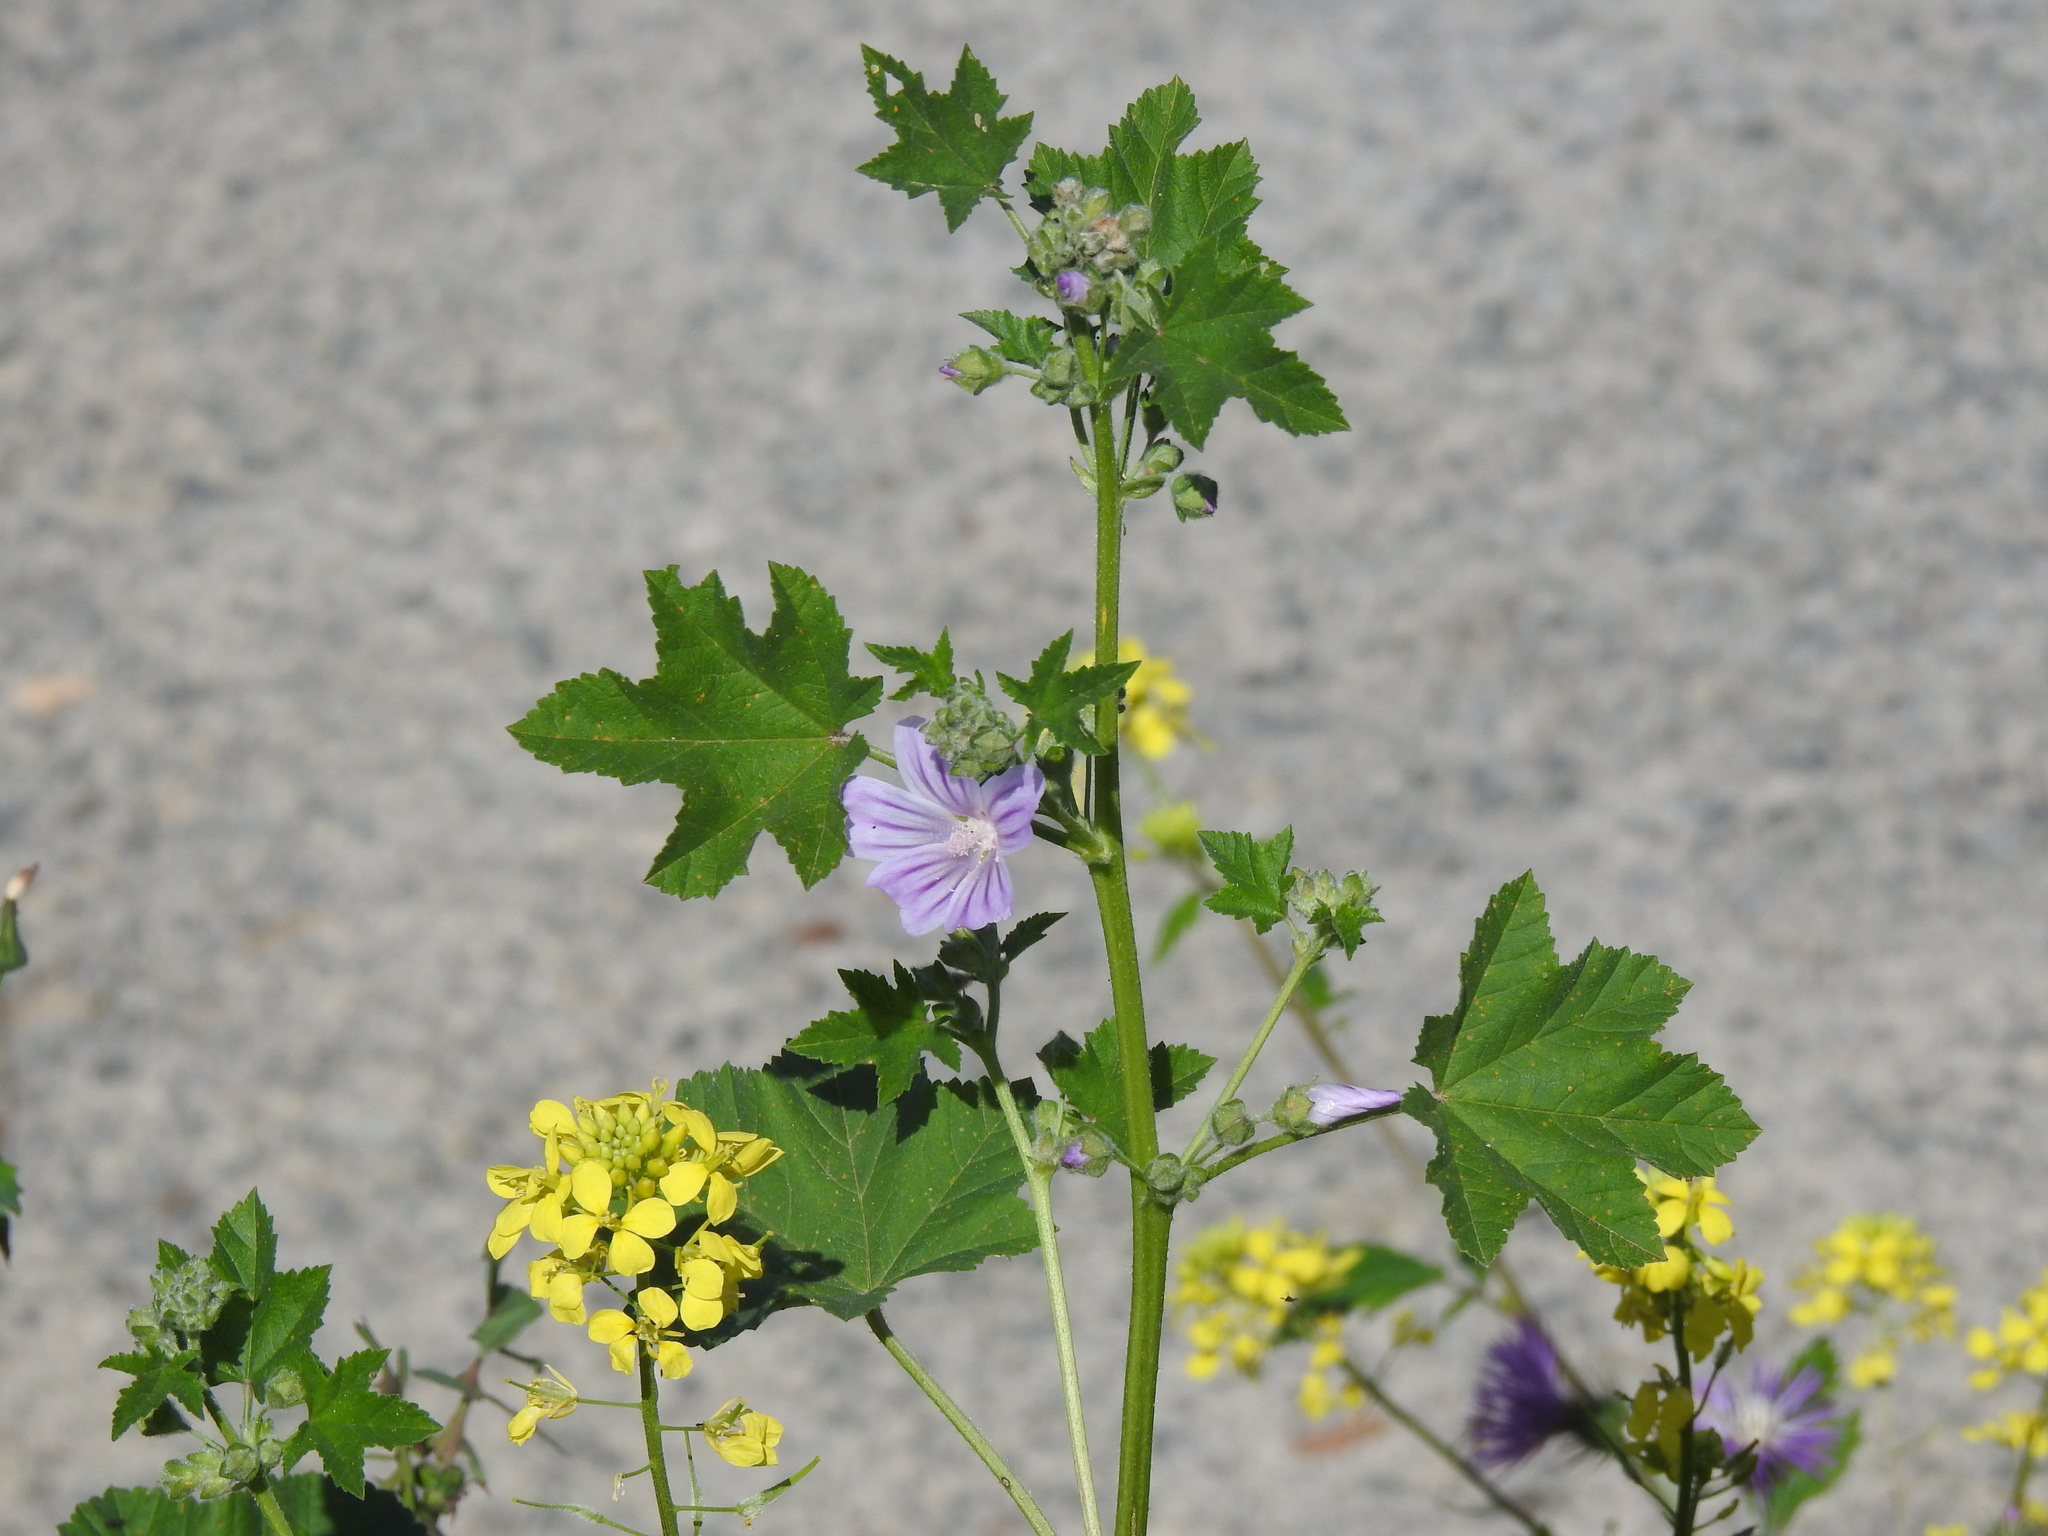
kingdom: Plantae
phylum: Tracheophyta
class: Magnoliopsida
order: Malvales
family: Malvaceae
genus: Malva
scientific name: Malva multiflora
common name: Cheeseweed
